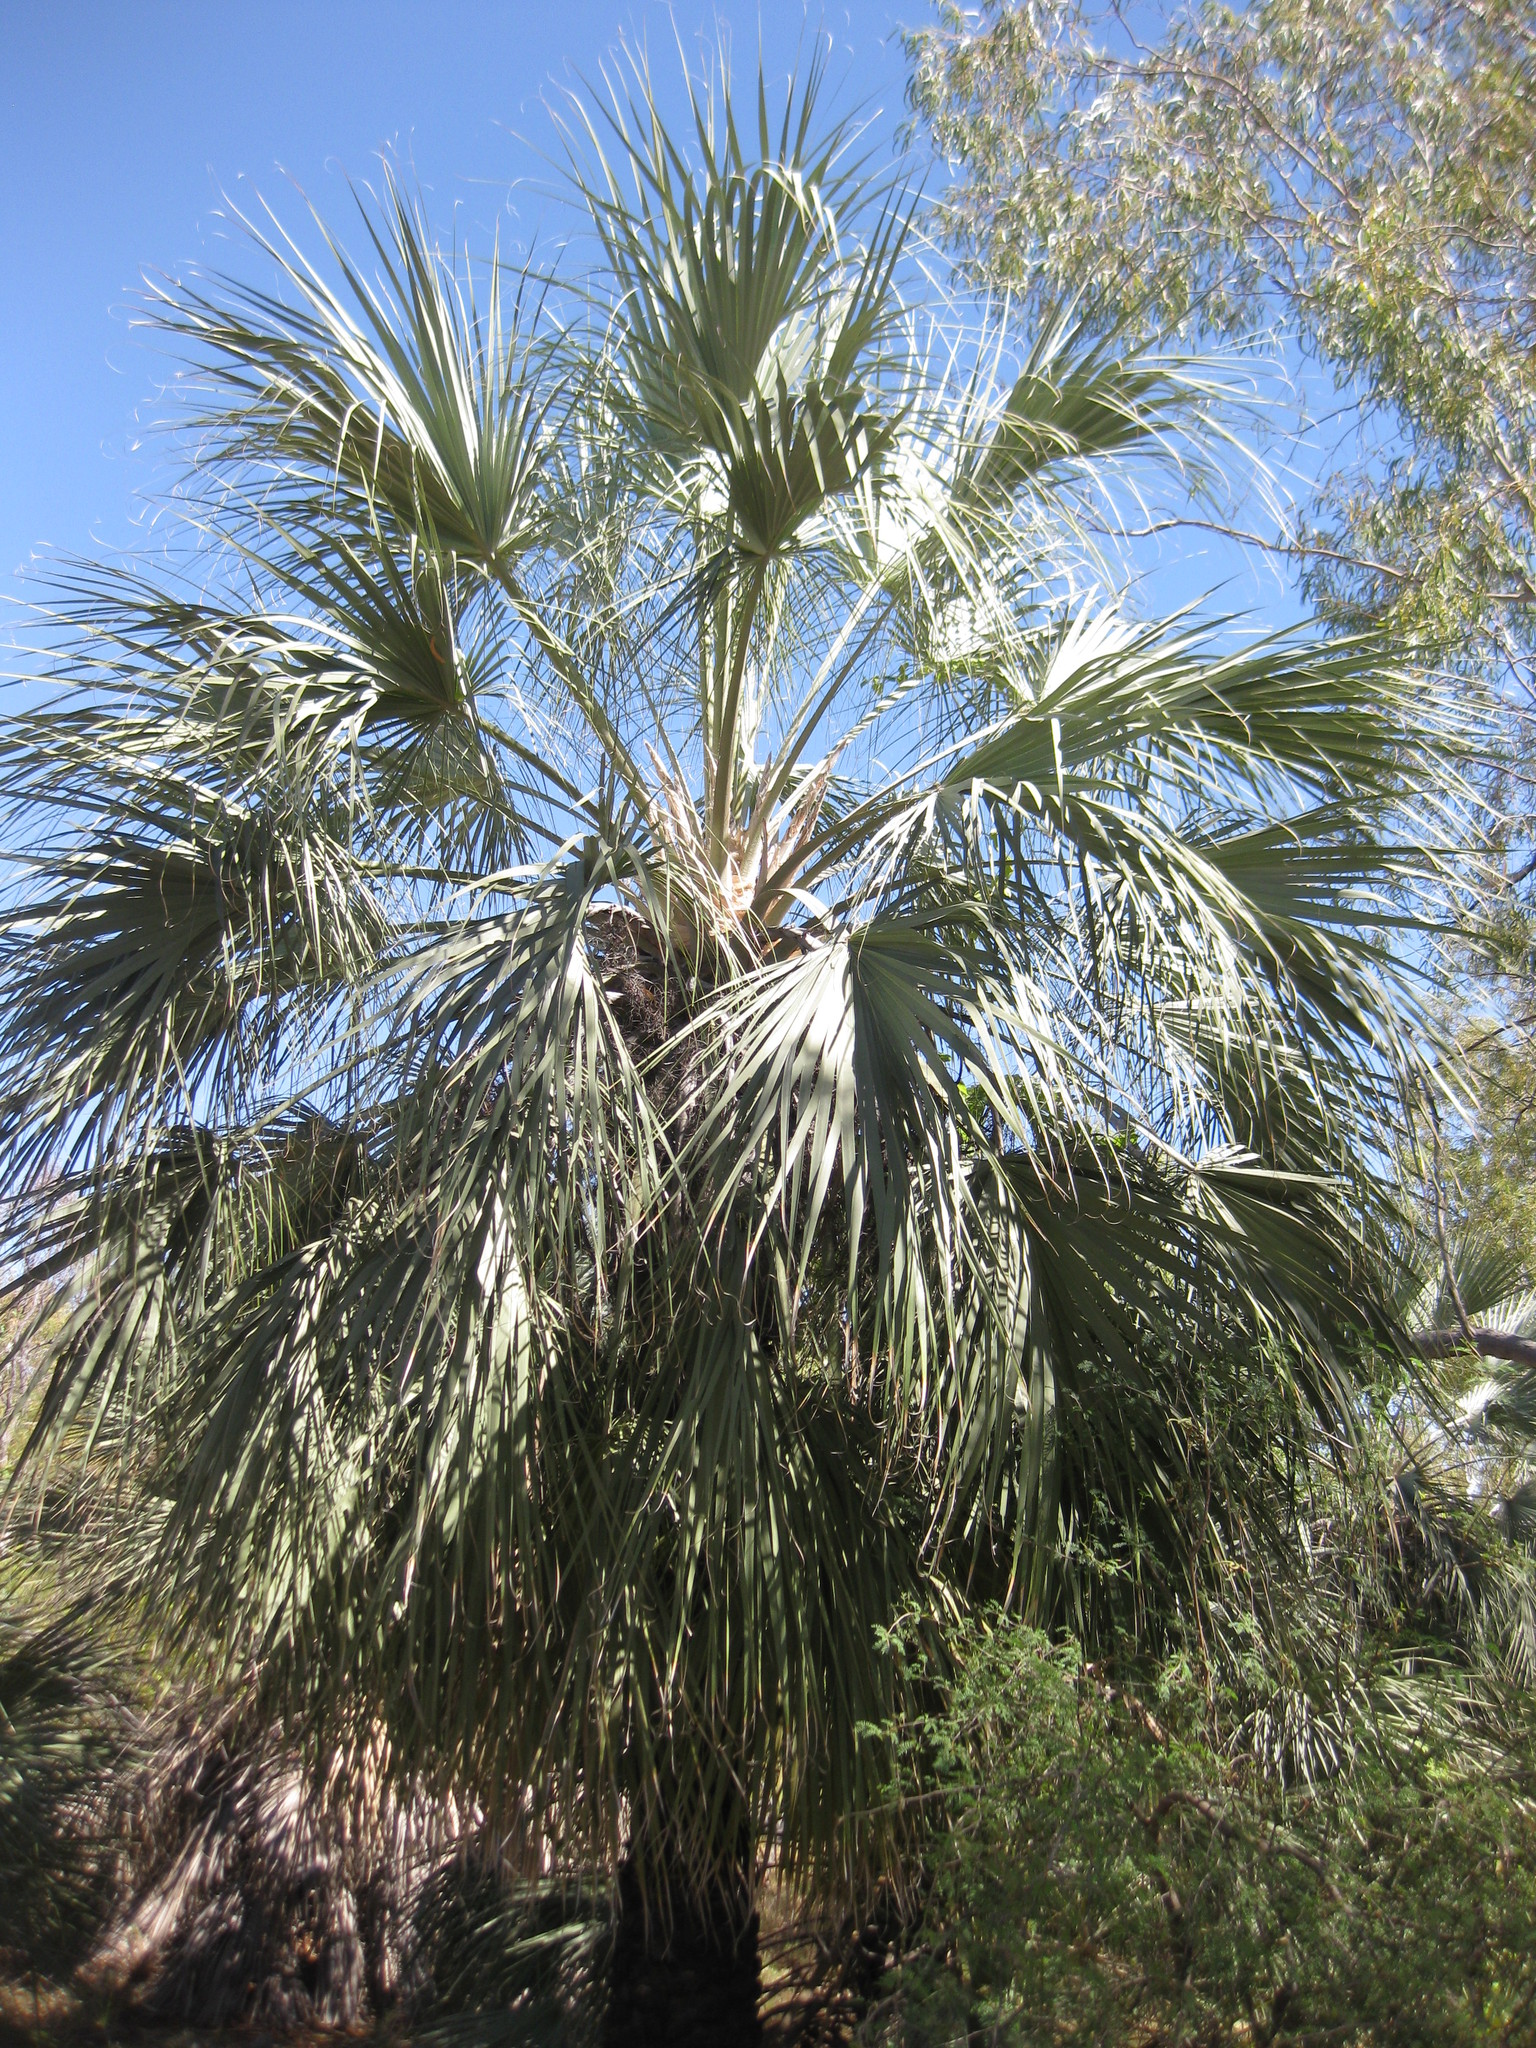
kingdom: Plantae
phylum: Tracheophyta
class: Liliopsida
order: Arecales
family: Arecaceae
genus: Livistona
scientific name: Livistona alfredii
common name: Millstream palm
